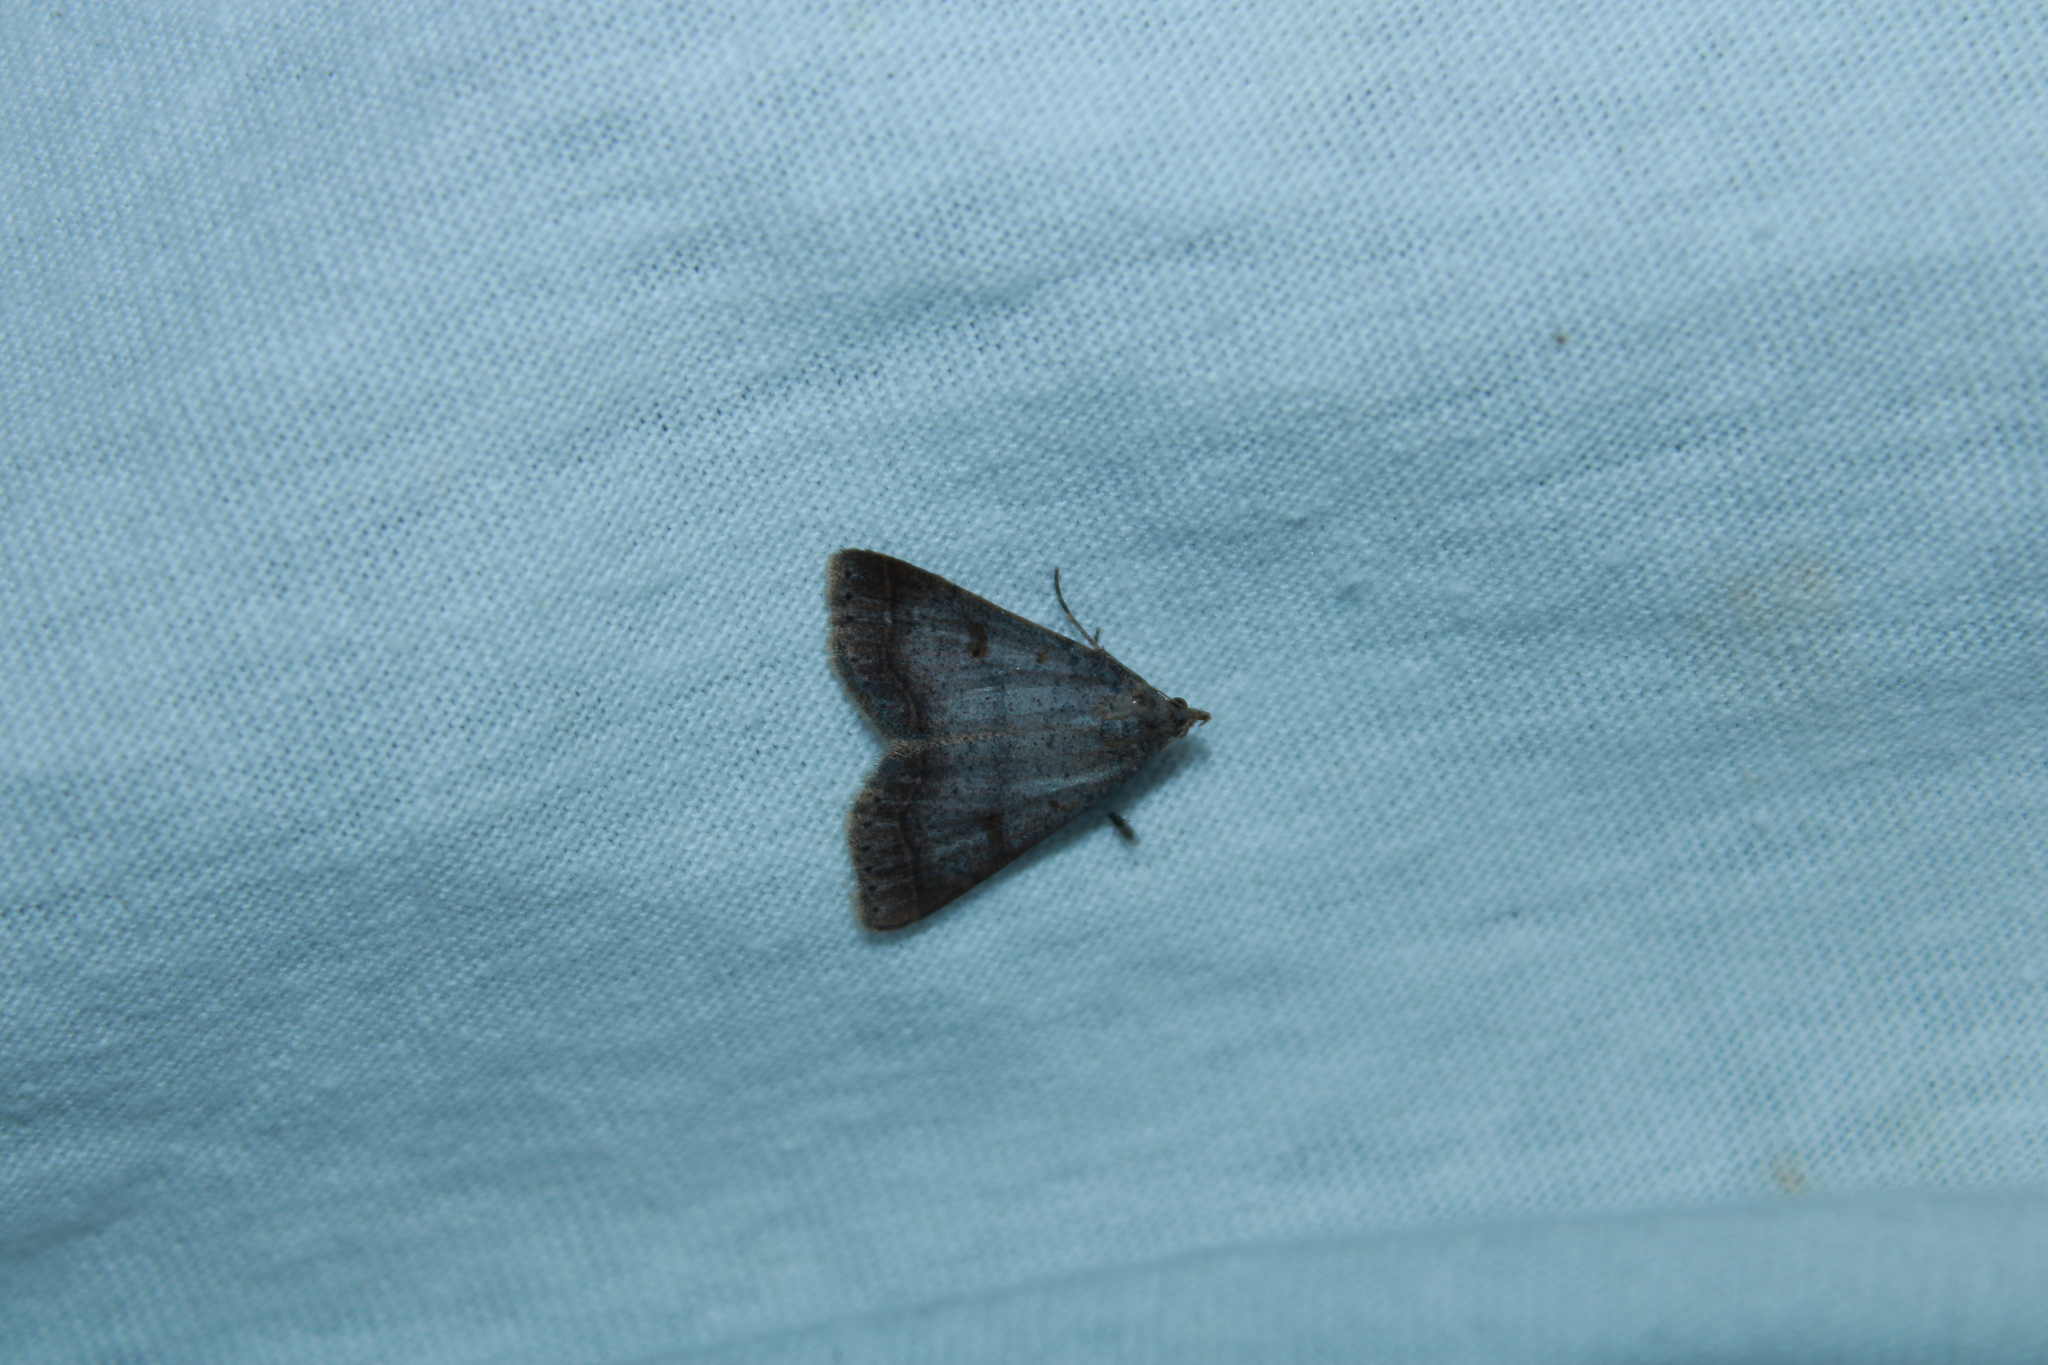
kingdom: Animalia
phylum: Arthropoda
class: Insecta
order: Lepidoptera
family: Erebidae
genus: Bleptina
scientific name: Bleptina caradrinalis
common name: Bent-winged owlet
